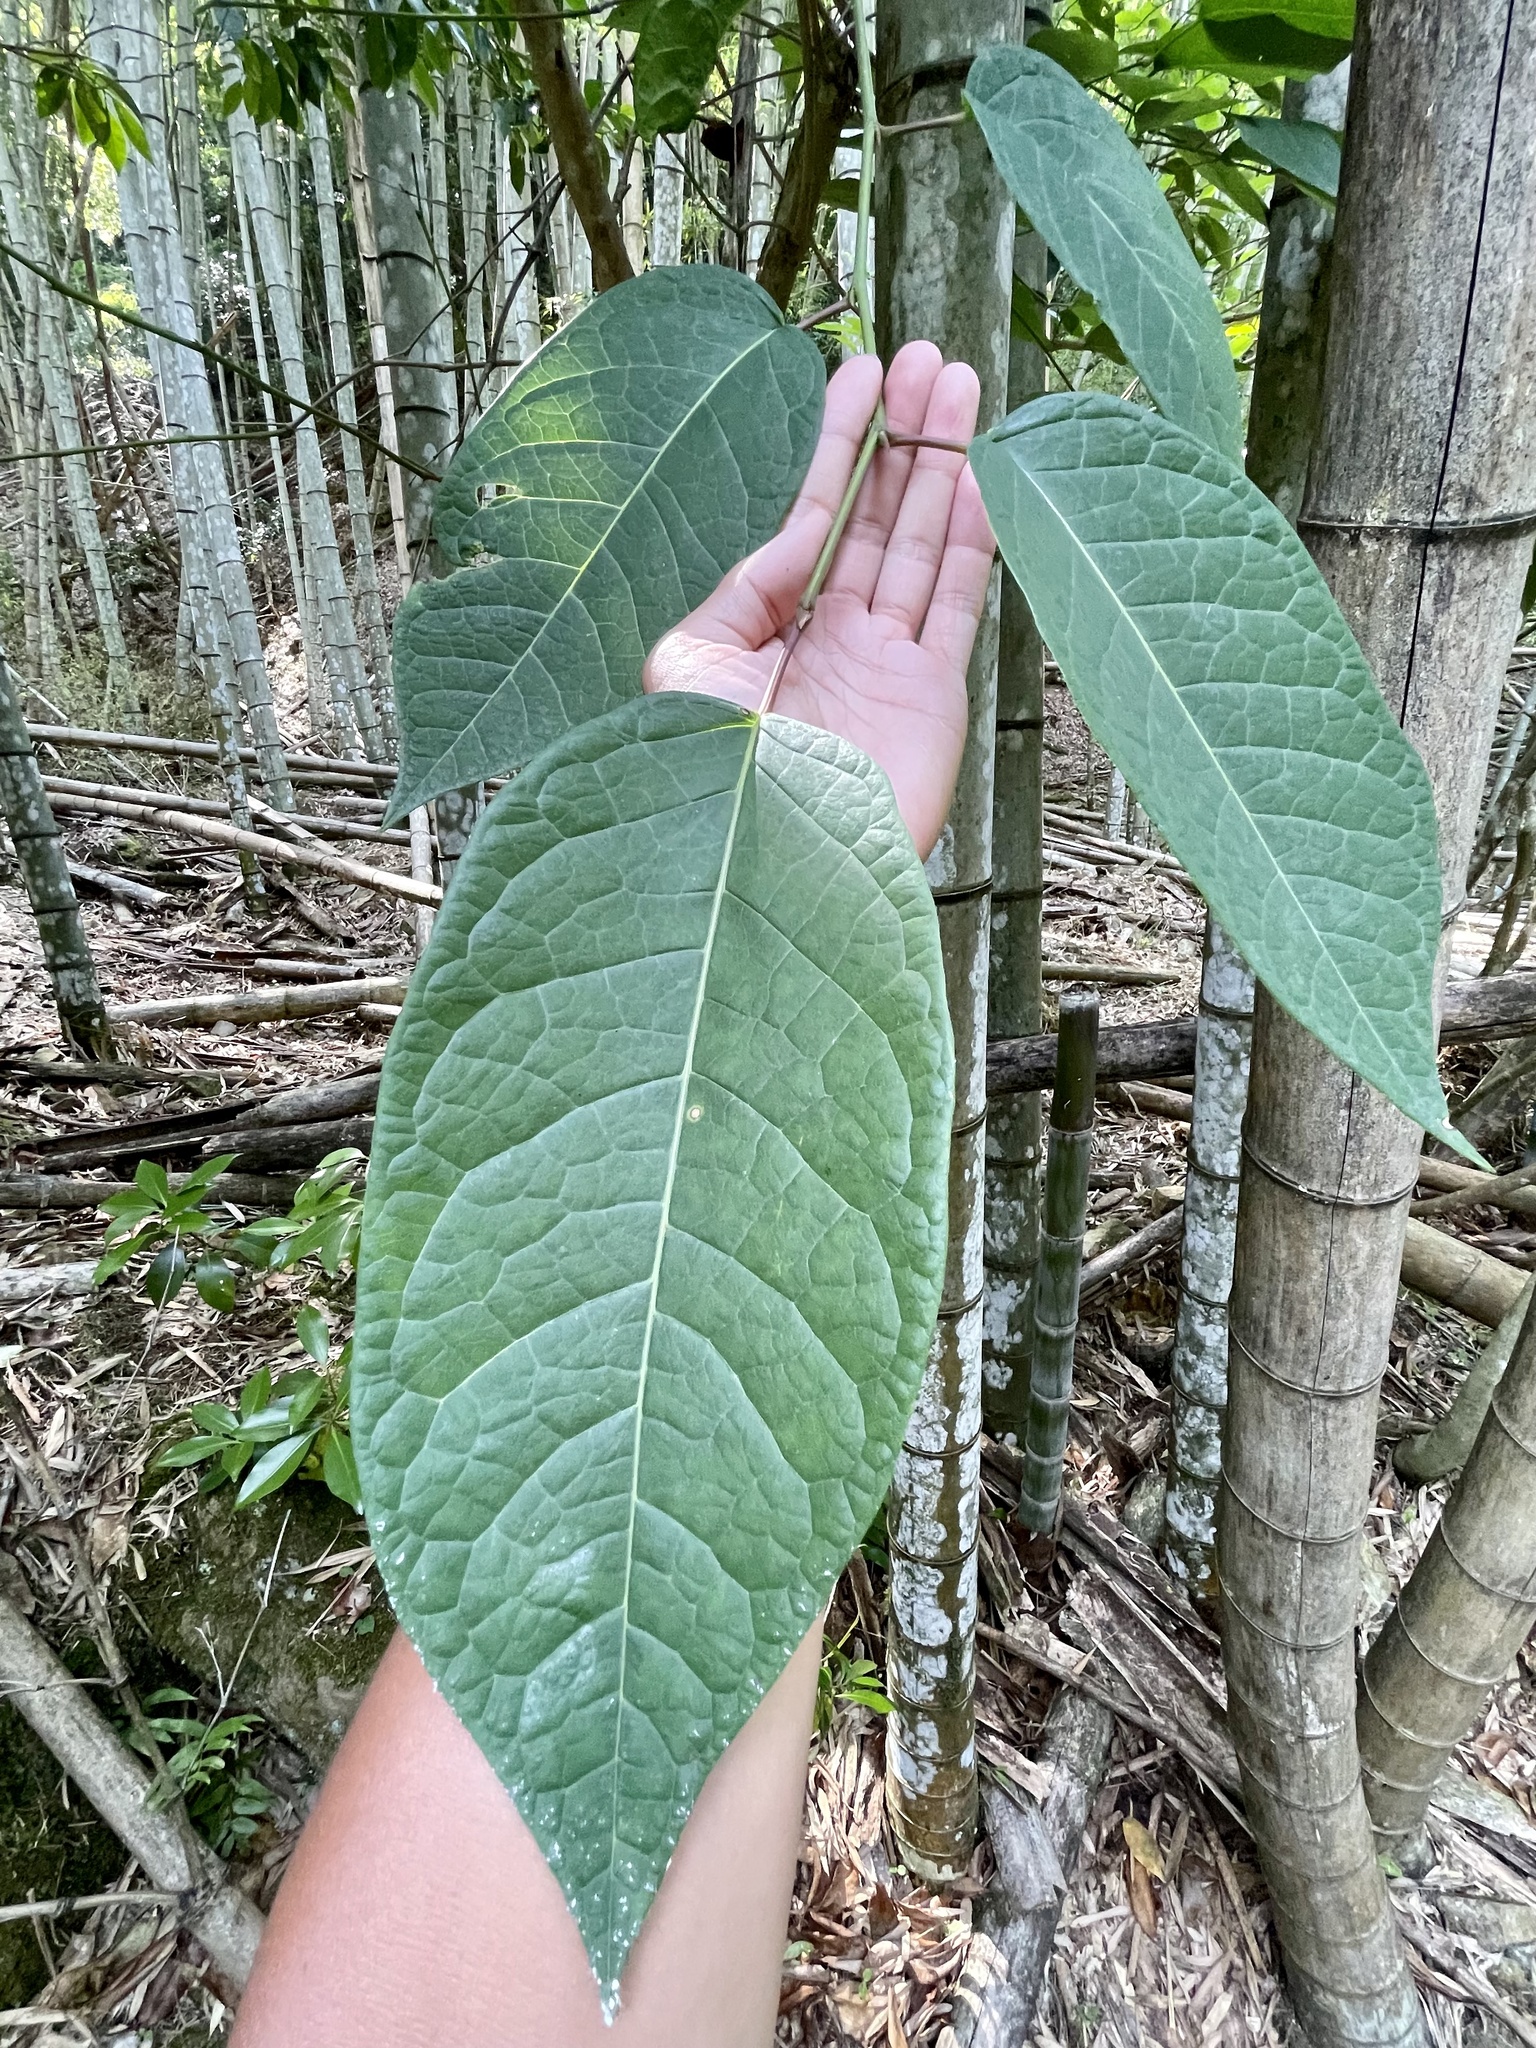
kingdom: Plantae
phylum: Tracheophyta
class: Magnoliopsida
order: Malpighiales
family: Euphorbiaceae
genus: Neoshirakia
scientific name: Neoshirakia japonica
